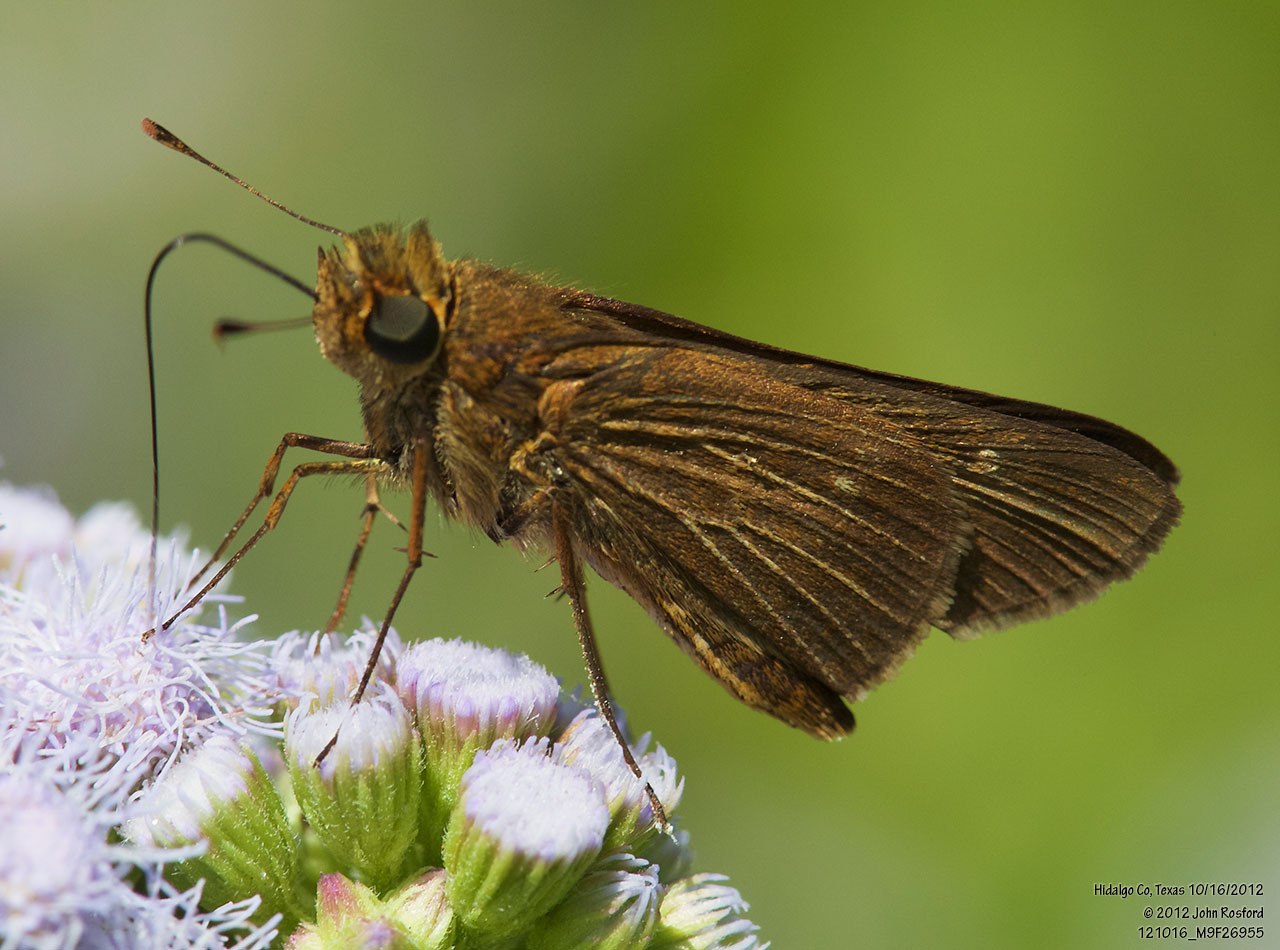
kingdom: Animalia
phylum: Arthropoda
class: Insecta
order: Lepidoptera
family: Hesperiidae
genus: Panoquina
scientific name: Panoquina ocola
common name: Ocola skipper
